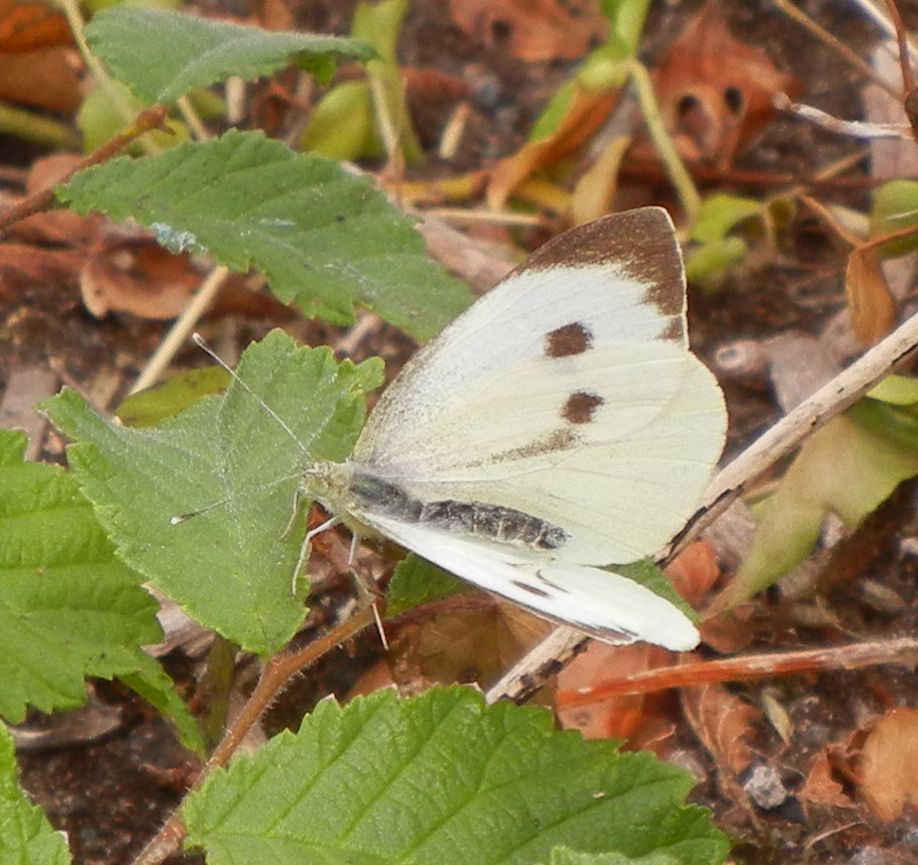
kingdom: Animalia
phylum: Arthropoda
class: Insecta
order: Lepidoptera
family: Pieridae
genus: Pieris
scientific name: Pieris brassicae
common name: Large white
